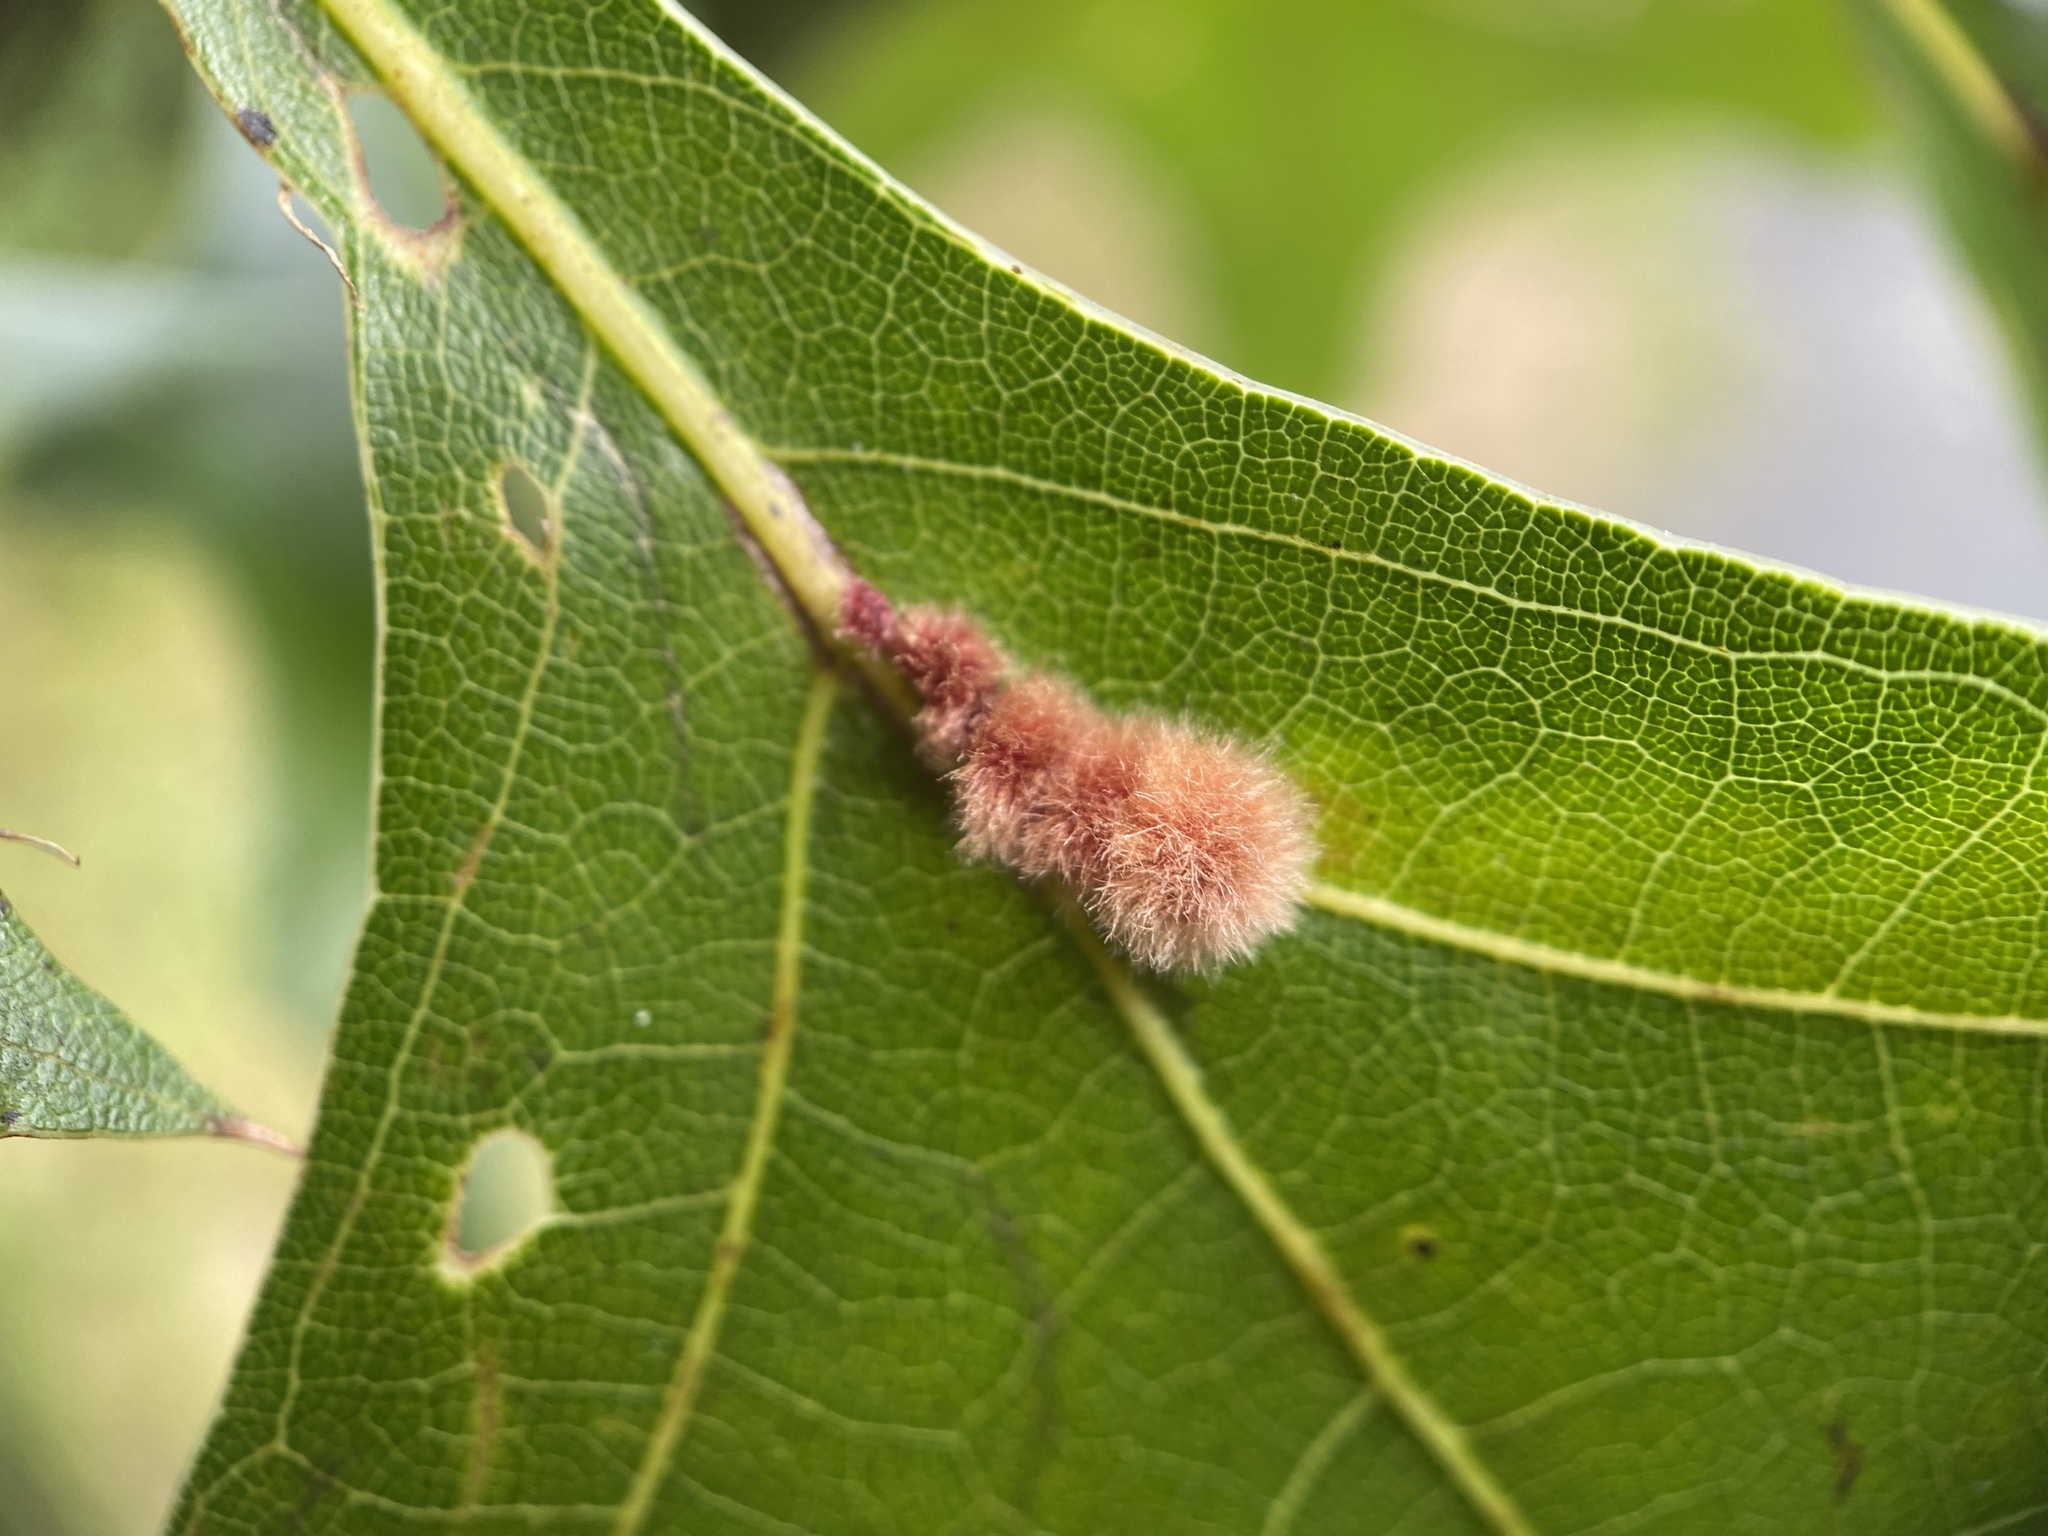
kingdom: Animalia
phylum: Arthropoda
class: Insecta
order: Hymenoptera
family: Cynipidae
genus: Callirhytis
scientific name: Callirhytis
